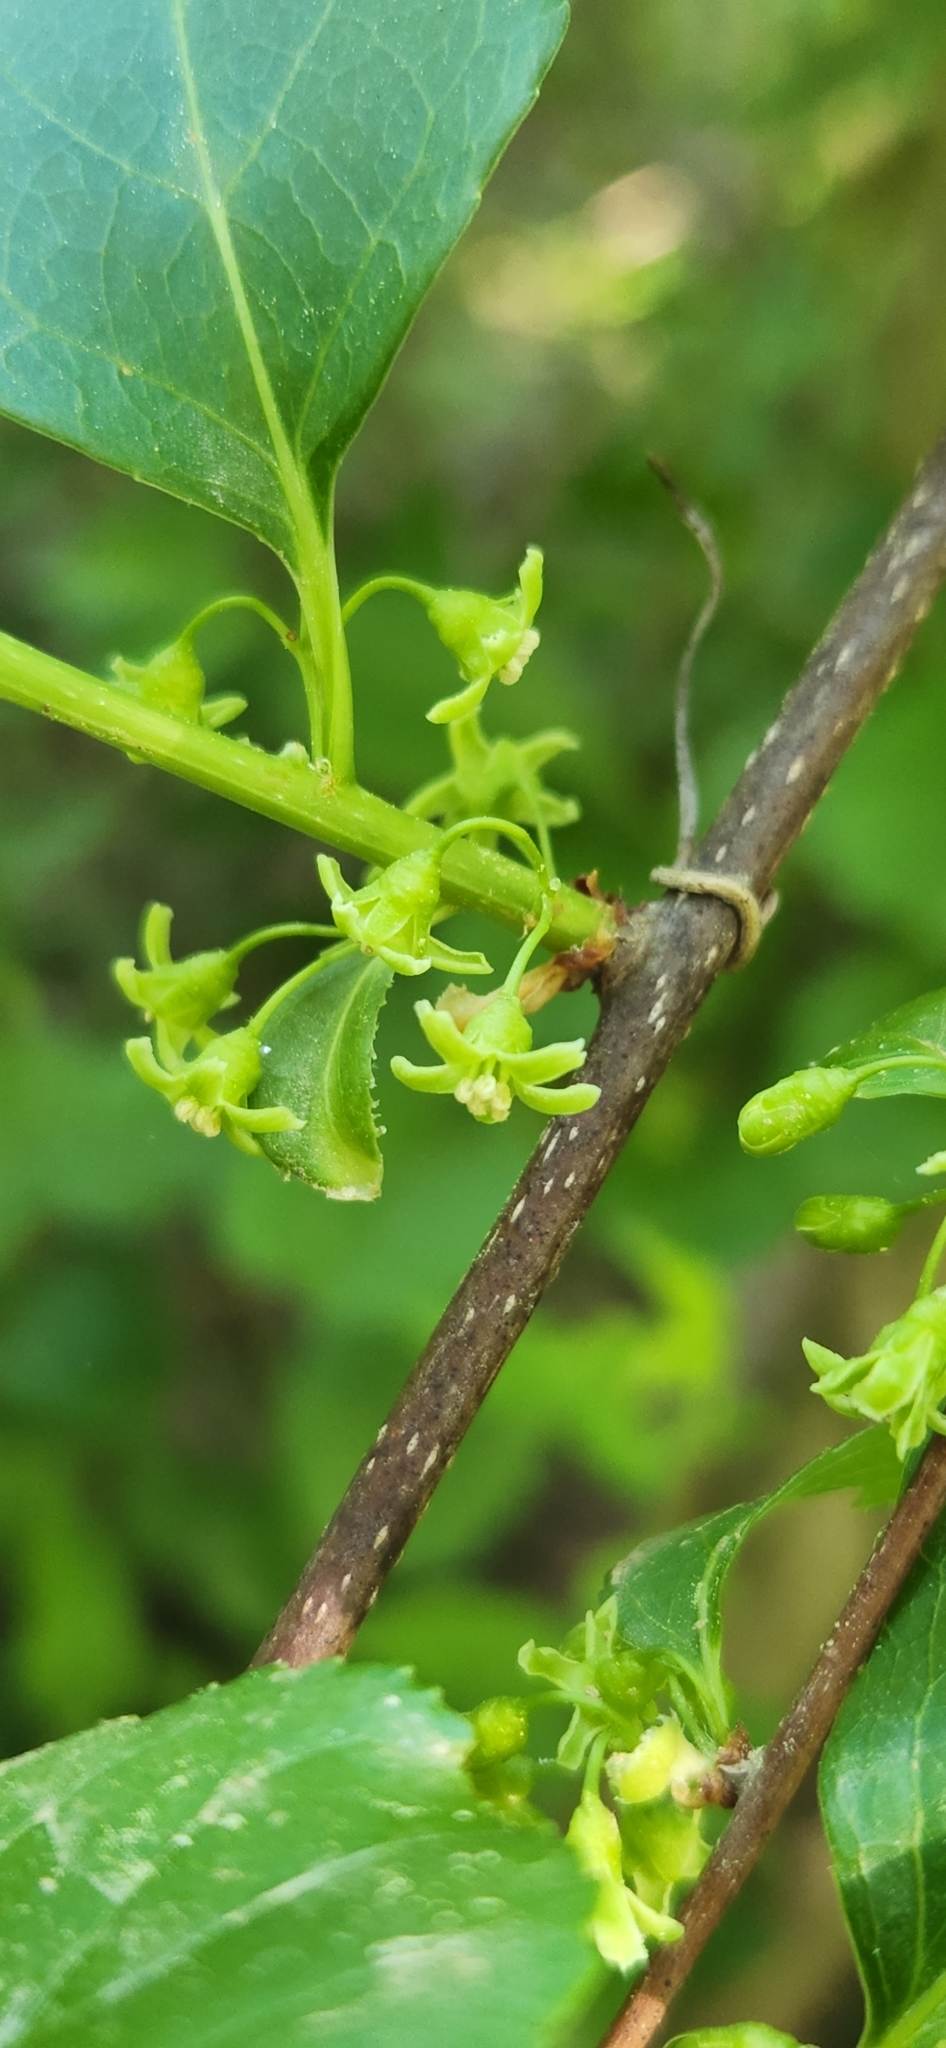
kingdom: Plantae
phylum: Tracheophyta
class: Magnoliopsida
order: Celastrales
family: Celastraceae
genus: Celastrus
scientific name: Celastrus orbiculatus
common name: Oriental bittersweet
